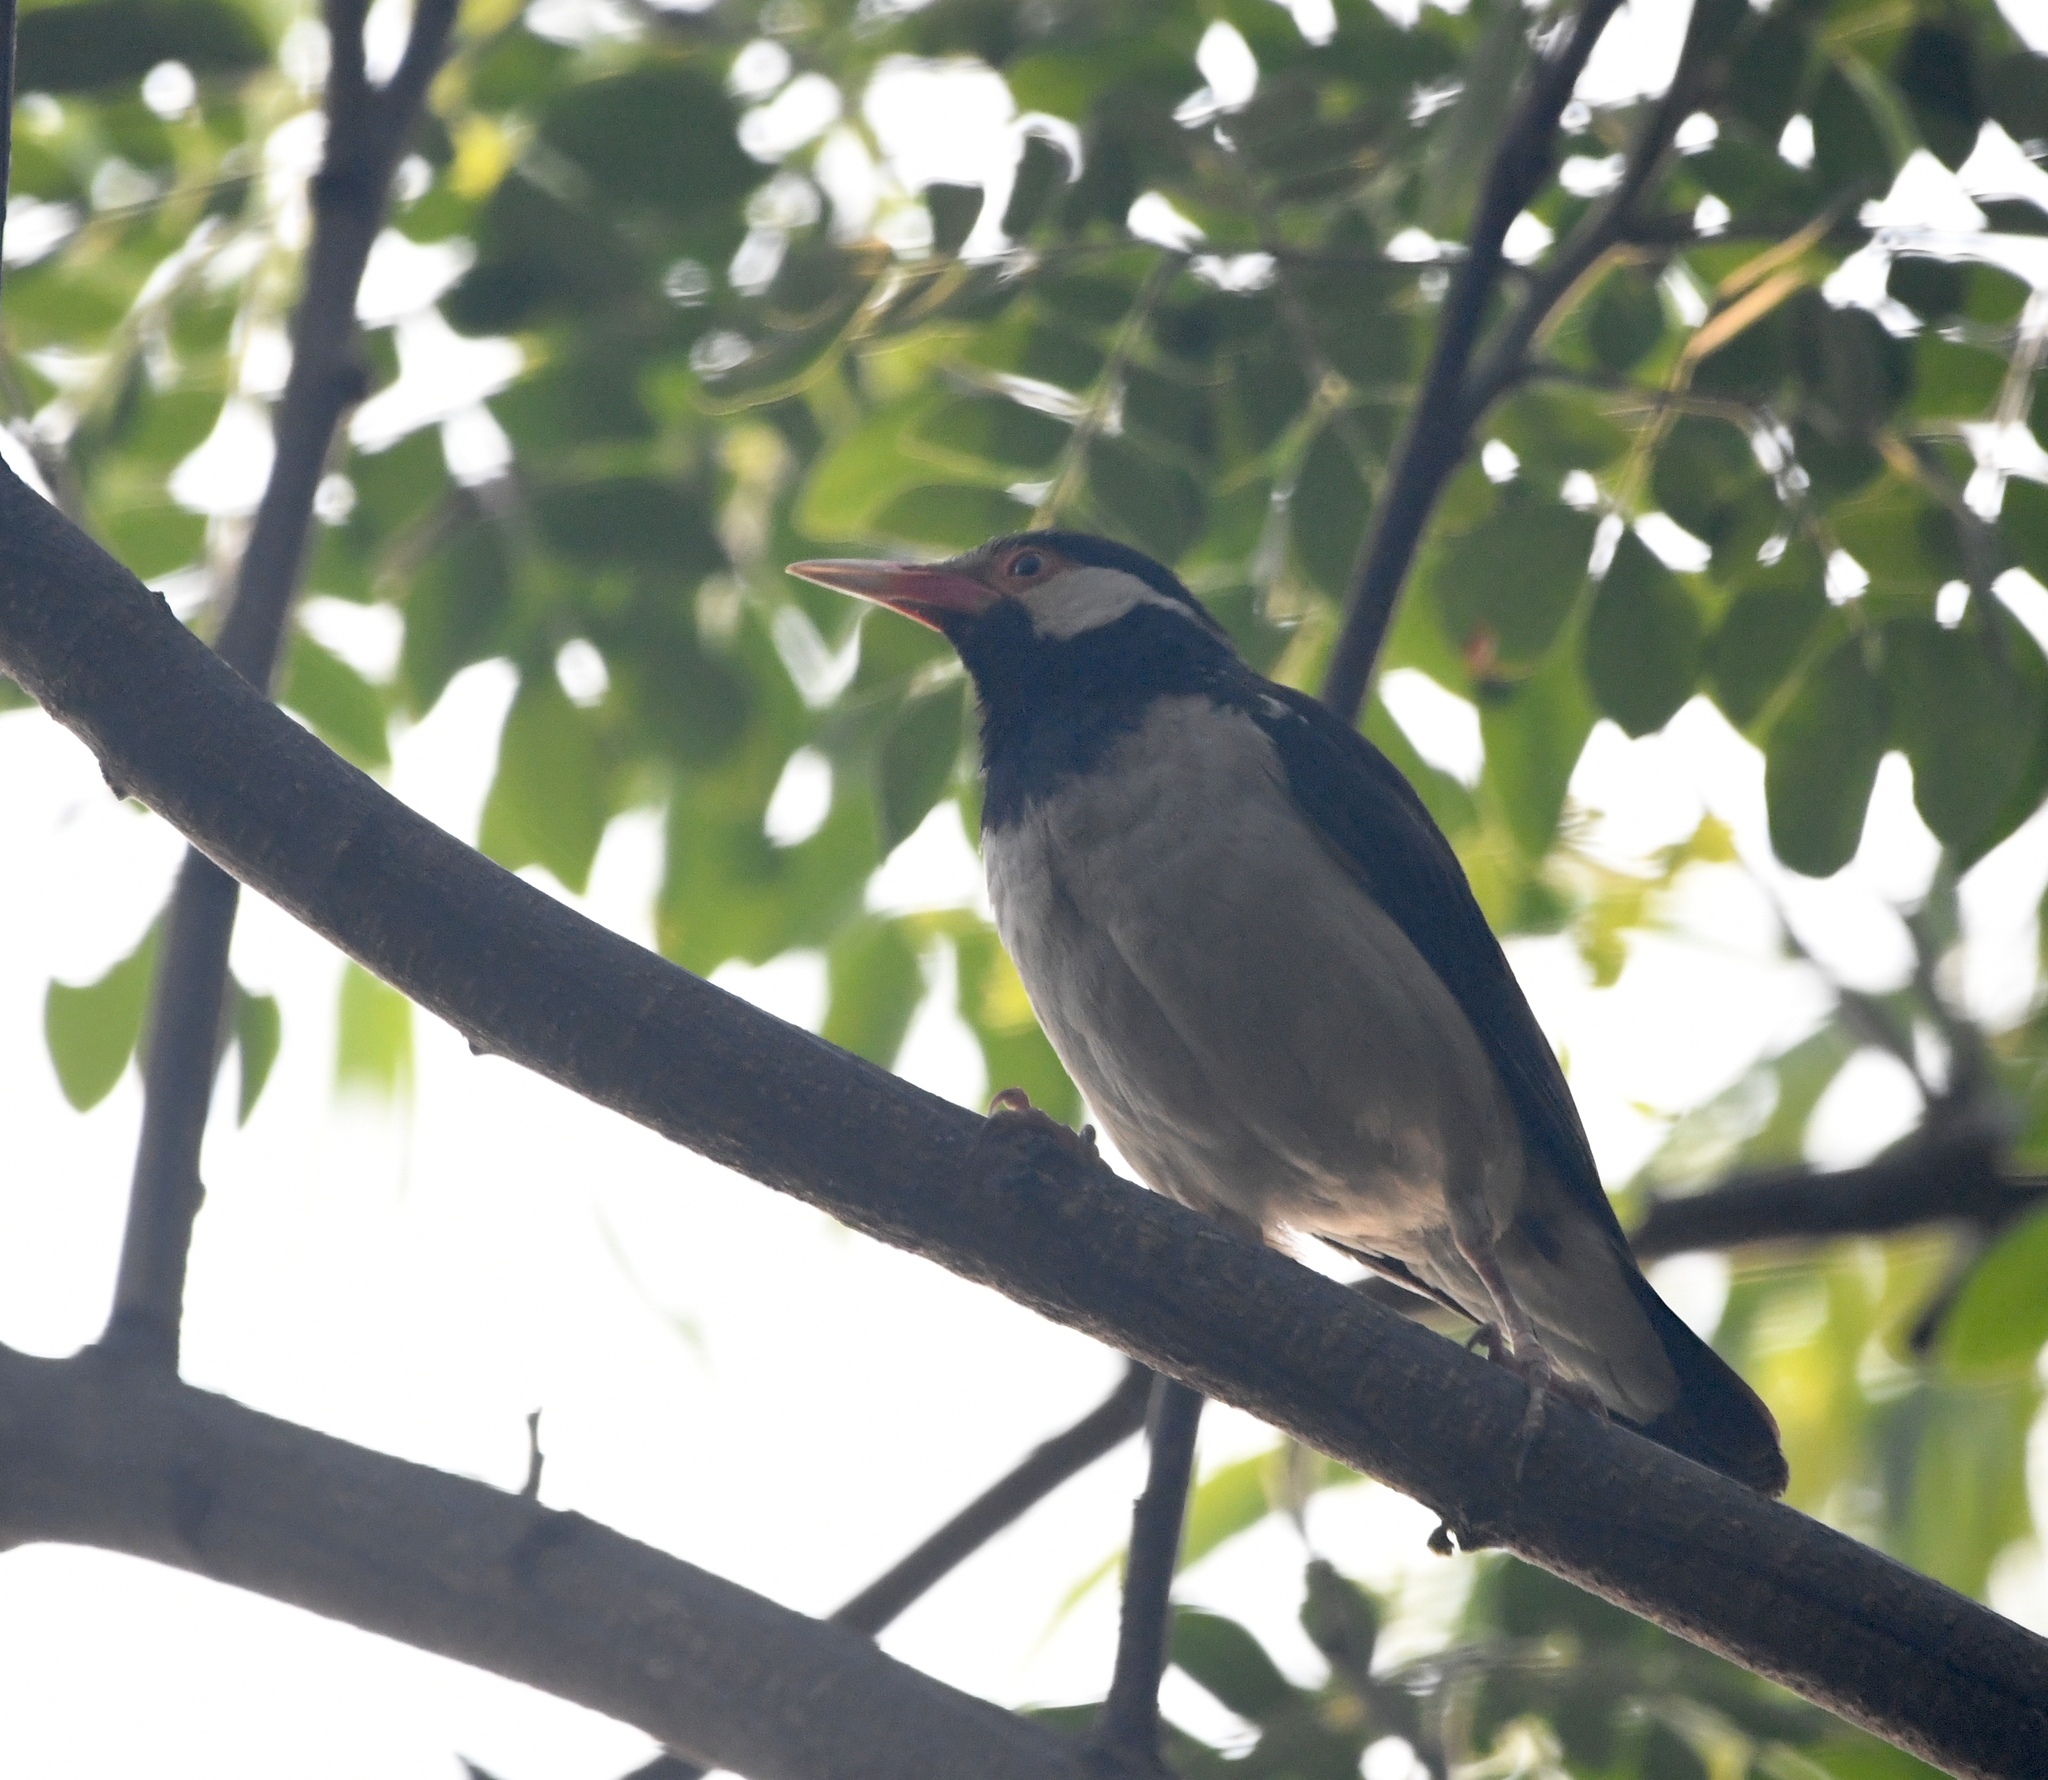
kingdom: Animalia
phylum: Chordata
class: Aves
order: Passeriformes
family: Sturnidae
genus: Gracupica
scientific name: Gracupica contra
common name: Pied myna
